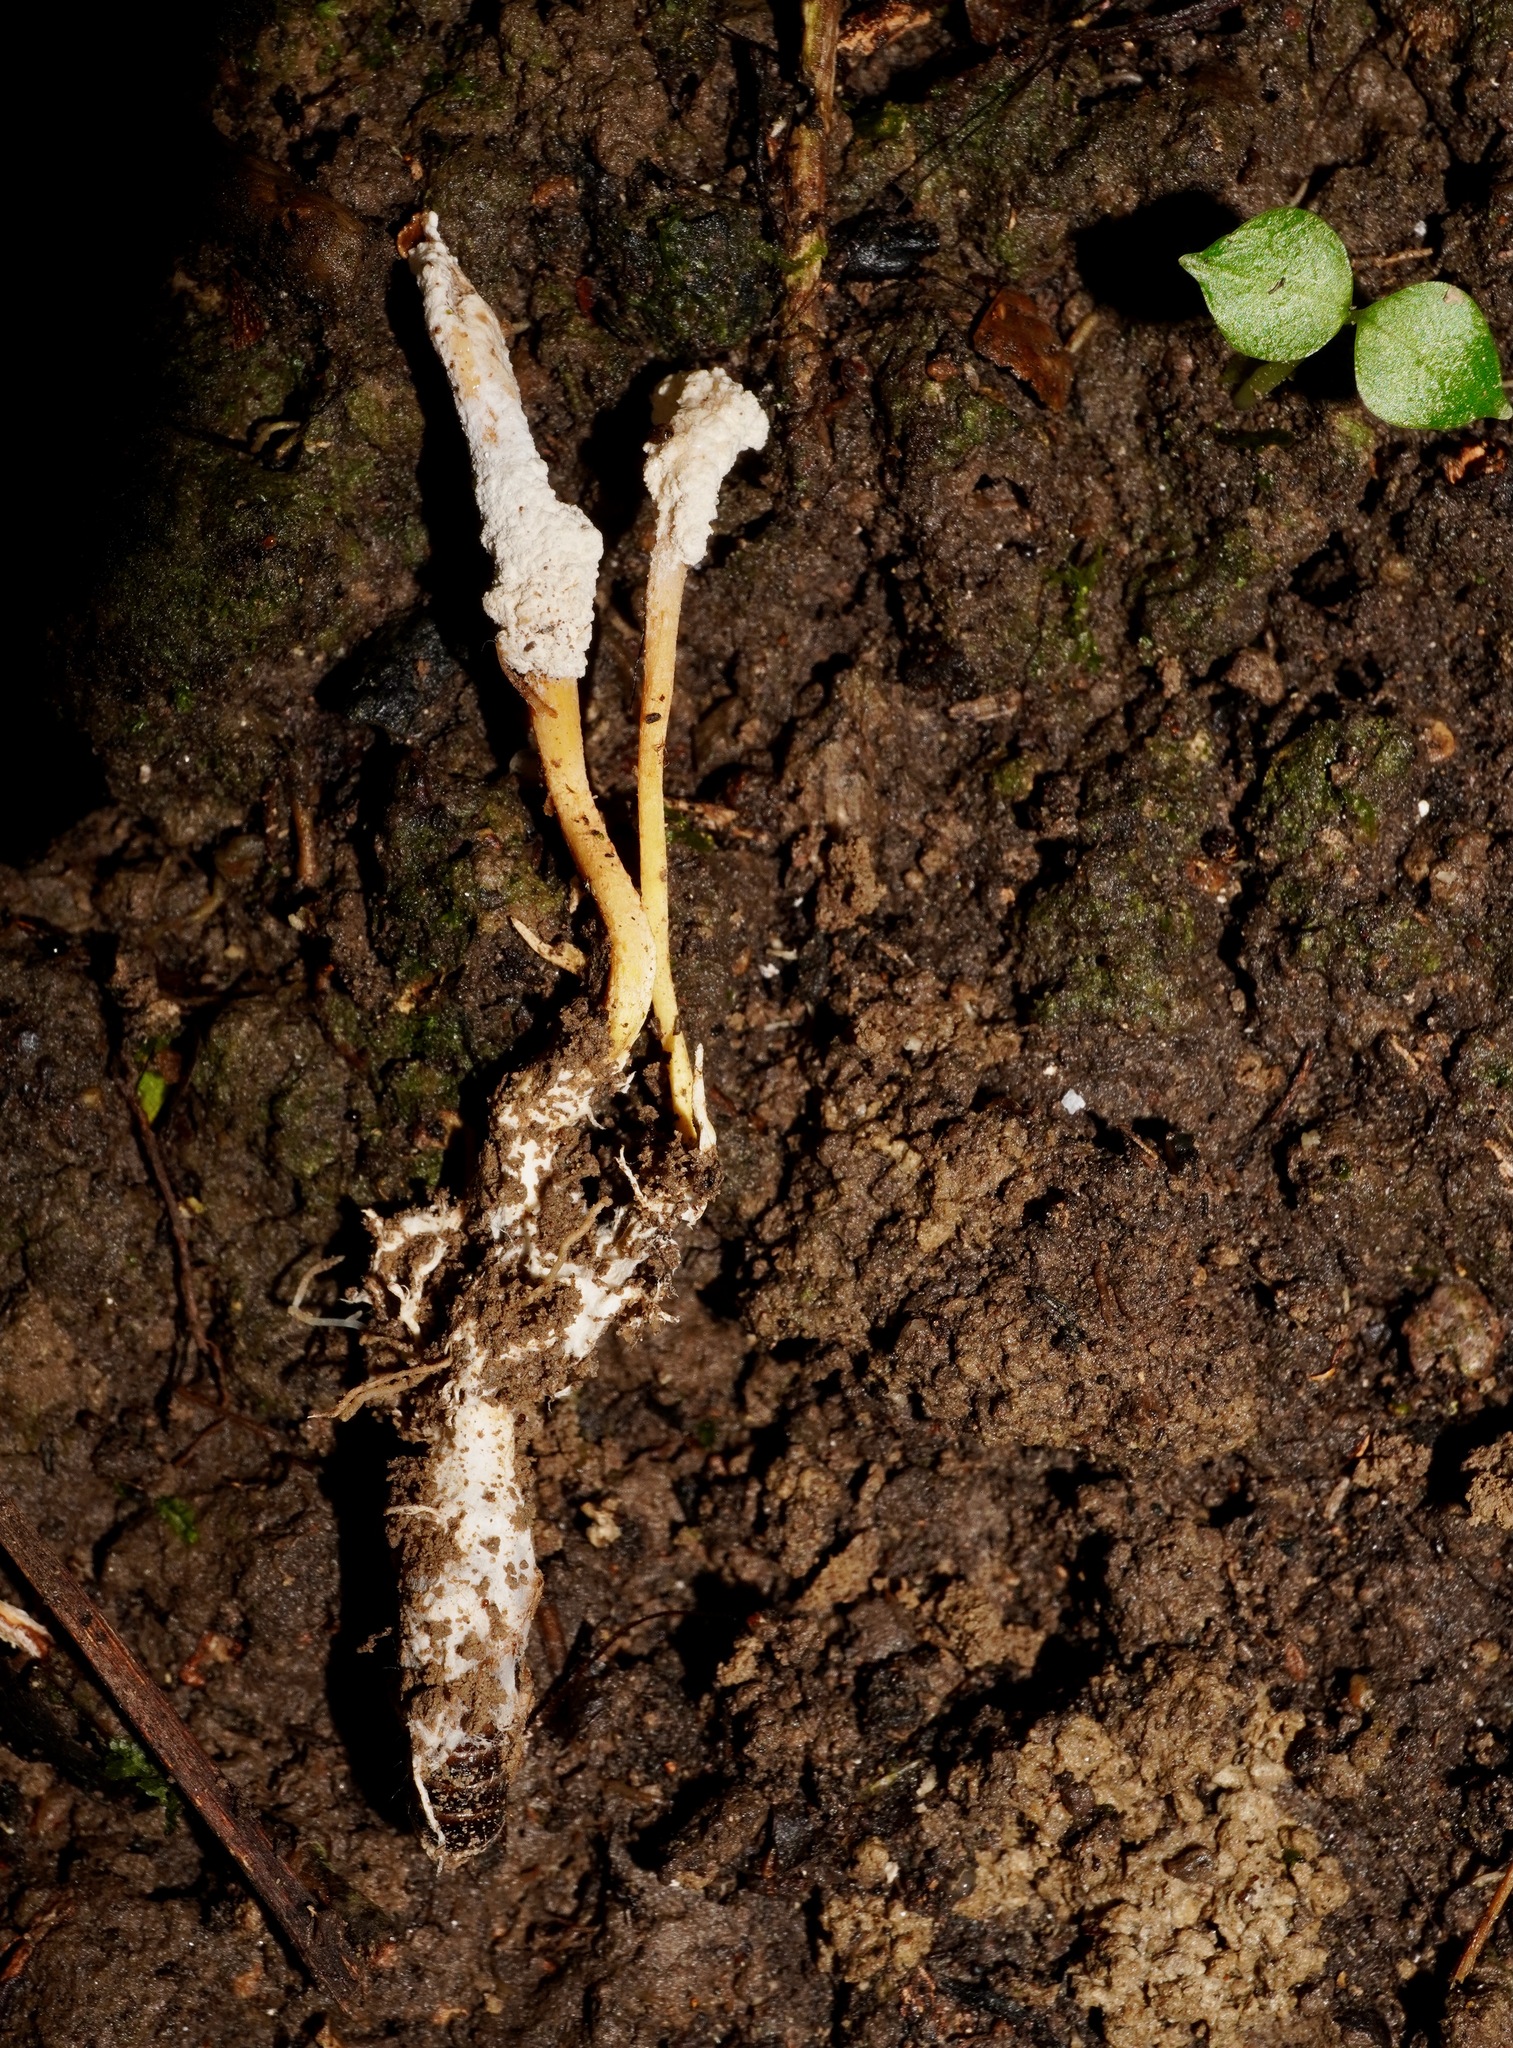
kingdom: Fungi
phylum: Ascomycota
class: Sordariomycetes
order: Hypocreales
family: Cordycipitaceae
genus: Cordyceps
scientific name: Cordyceps tenuipes
